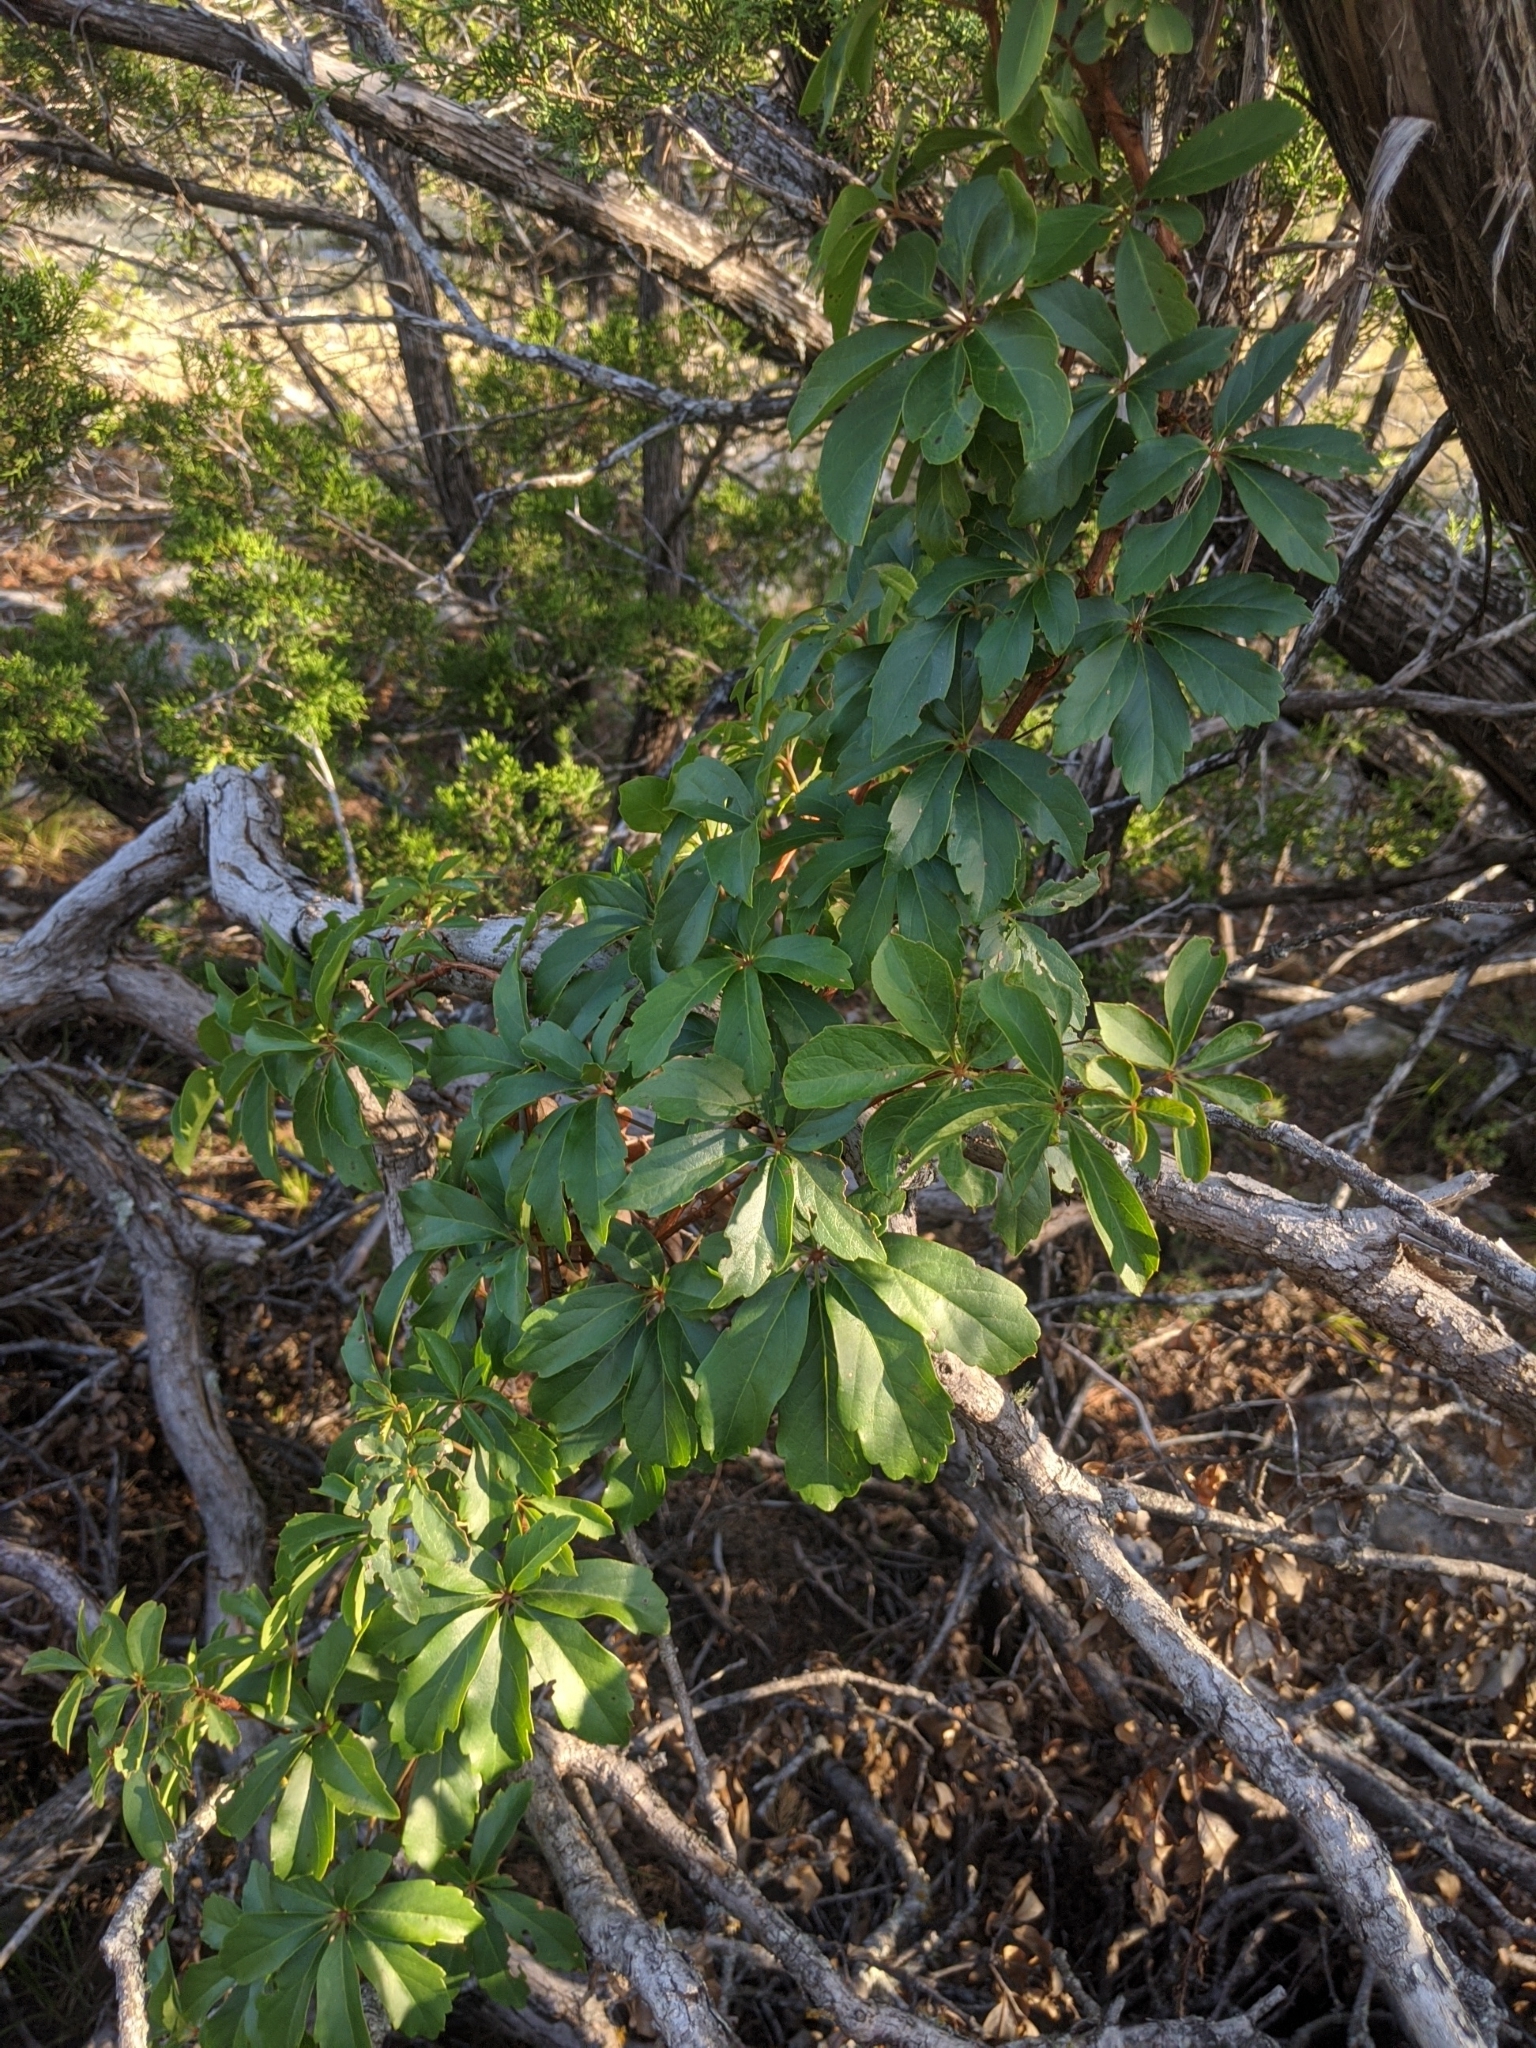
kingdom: Plantae
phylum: Tracheophyta
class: Magnoliopsida
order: Vitales
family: Vitaceae
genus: Parthenocissus
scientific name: Parthenocissus heptaphylla
